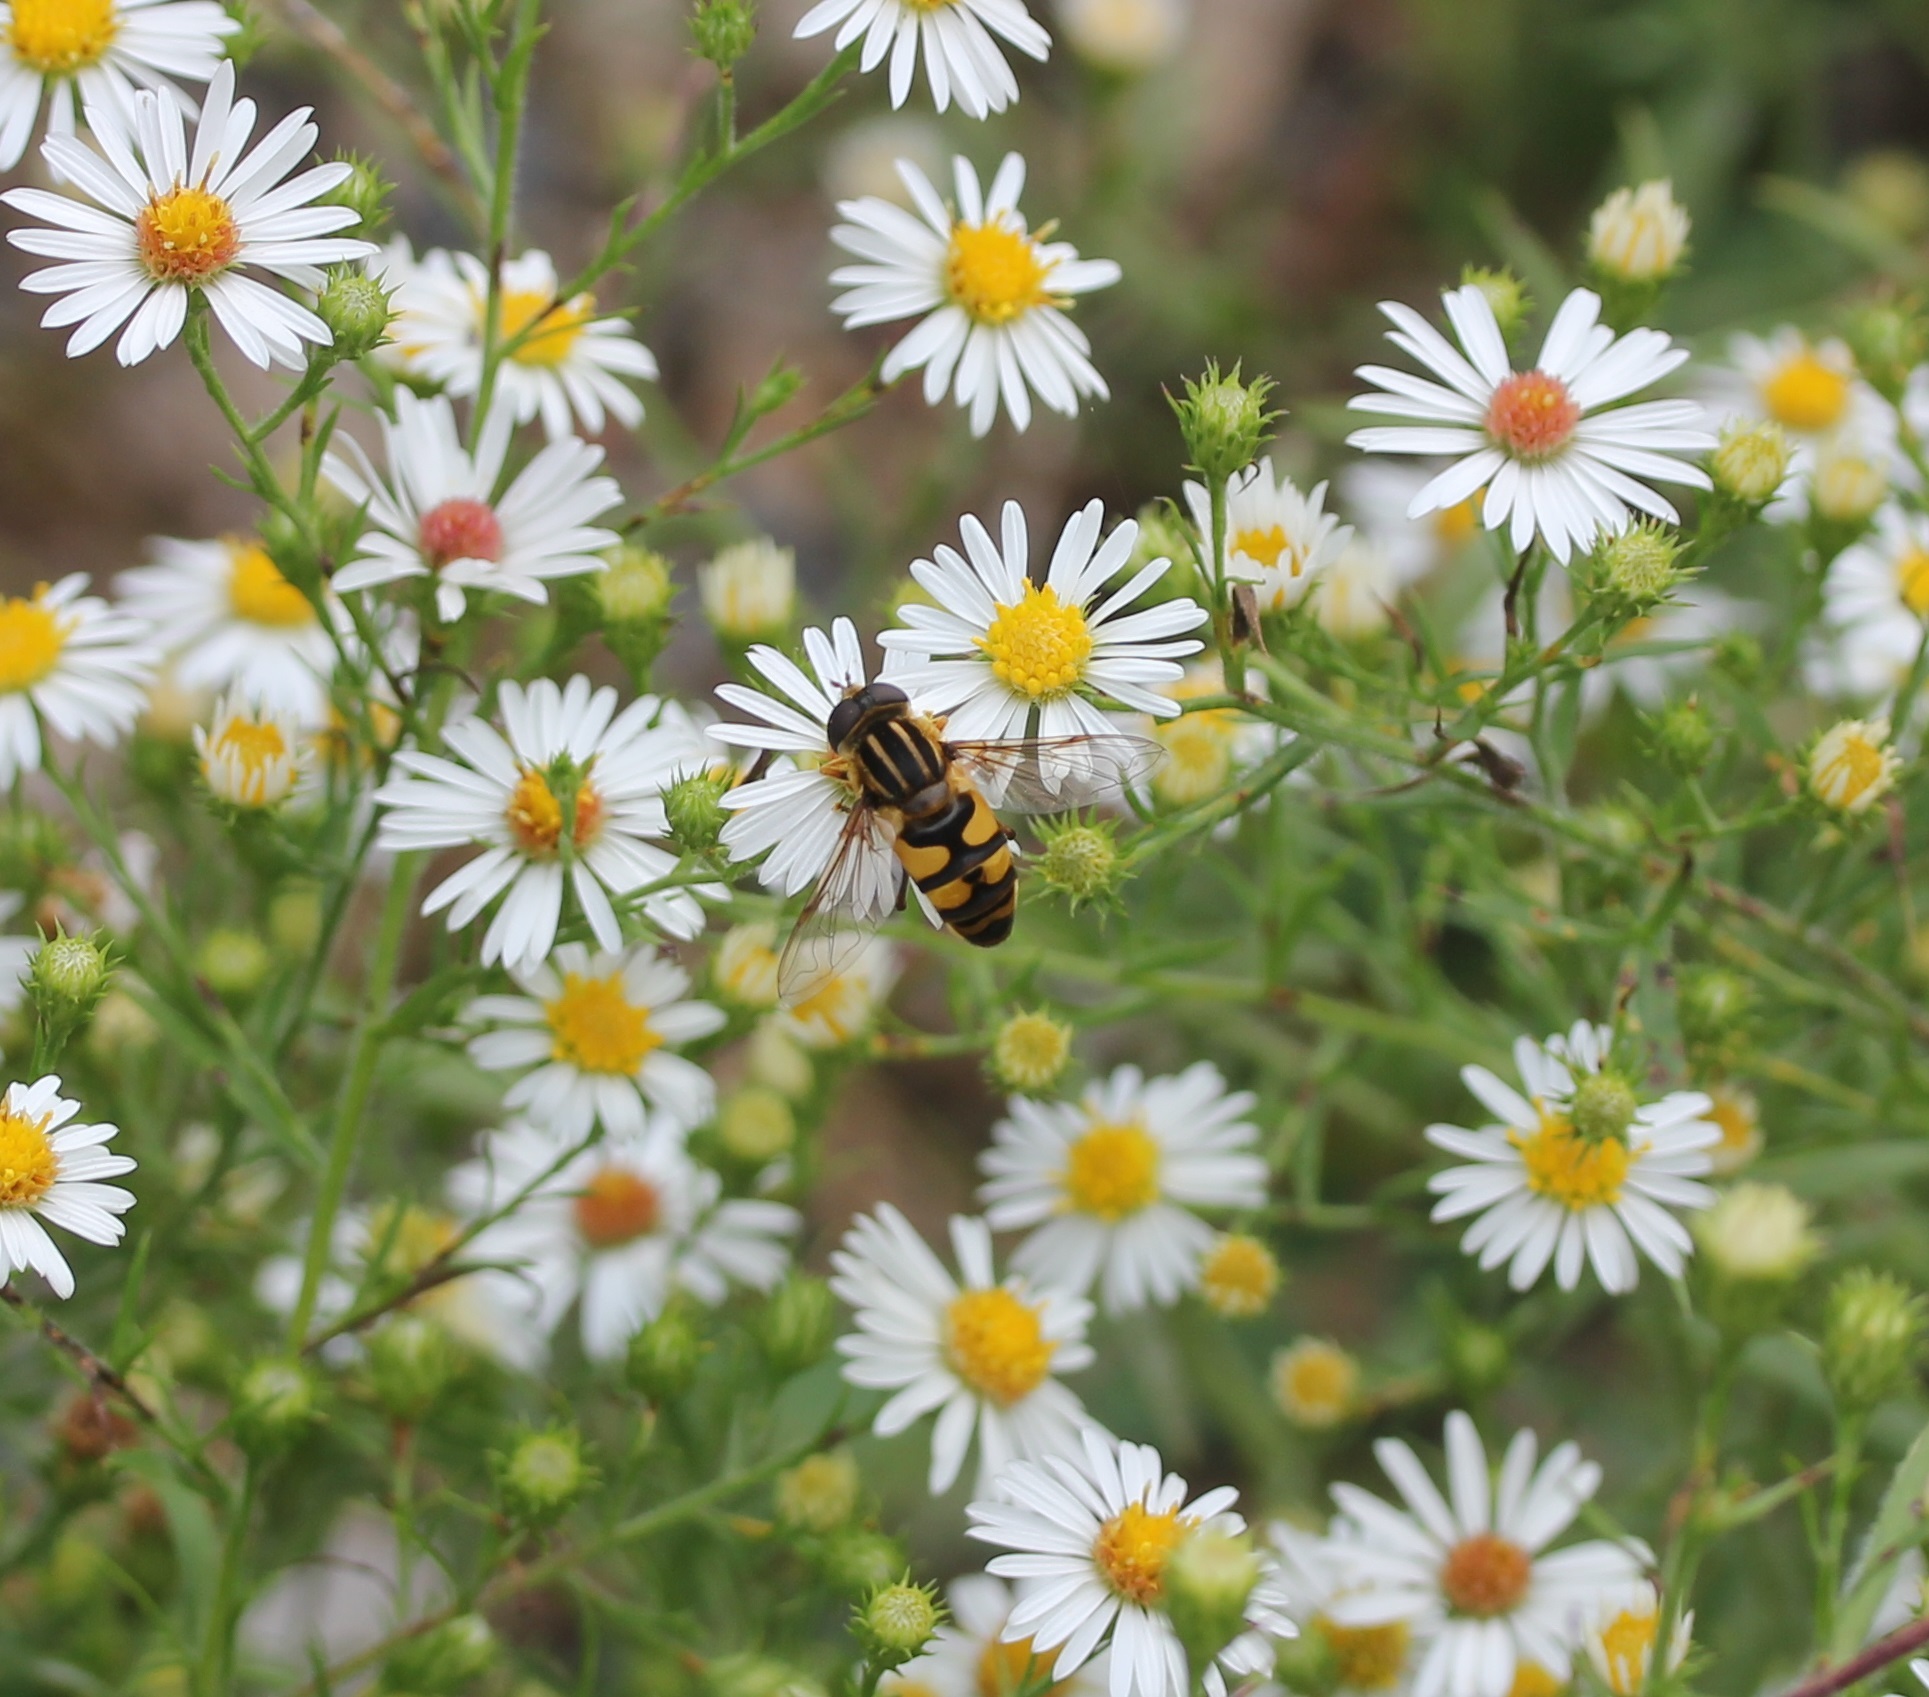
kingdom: Animalia
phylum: Arthropoda
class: Insecta
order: Diptera
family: Syrphidae
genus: Helophilus
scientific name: Helophilus fasciatus
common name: Narrow-headed marsh fly
